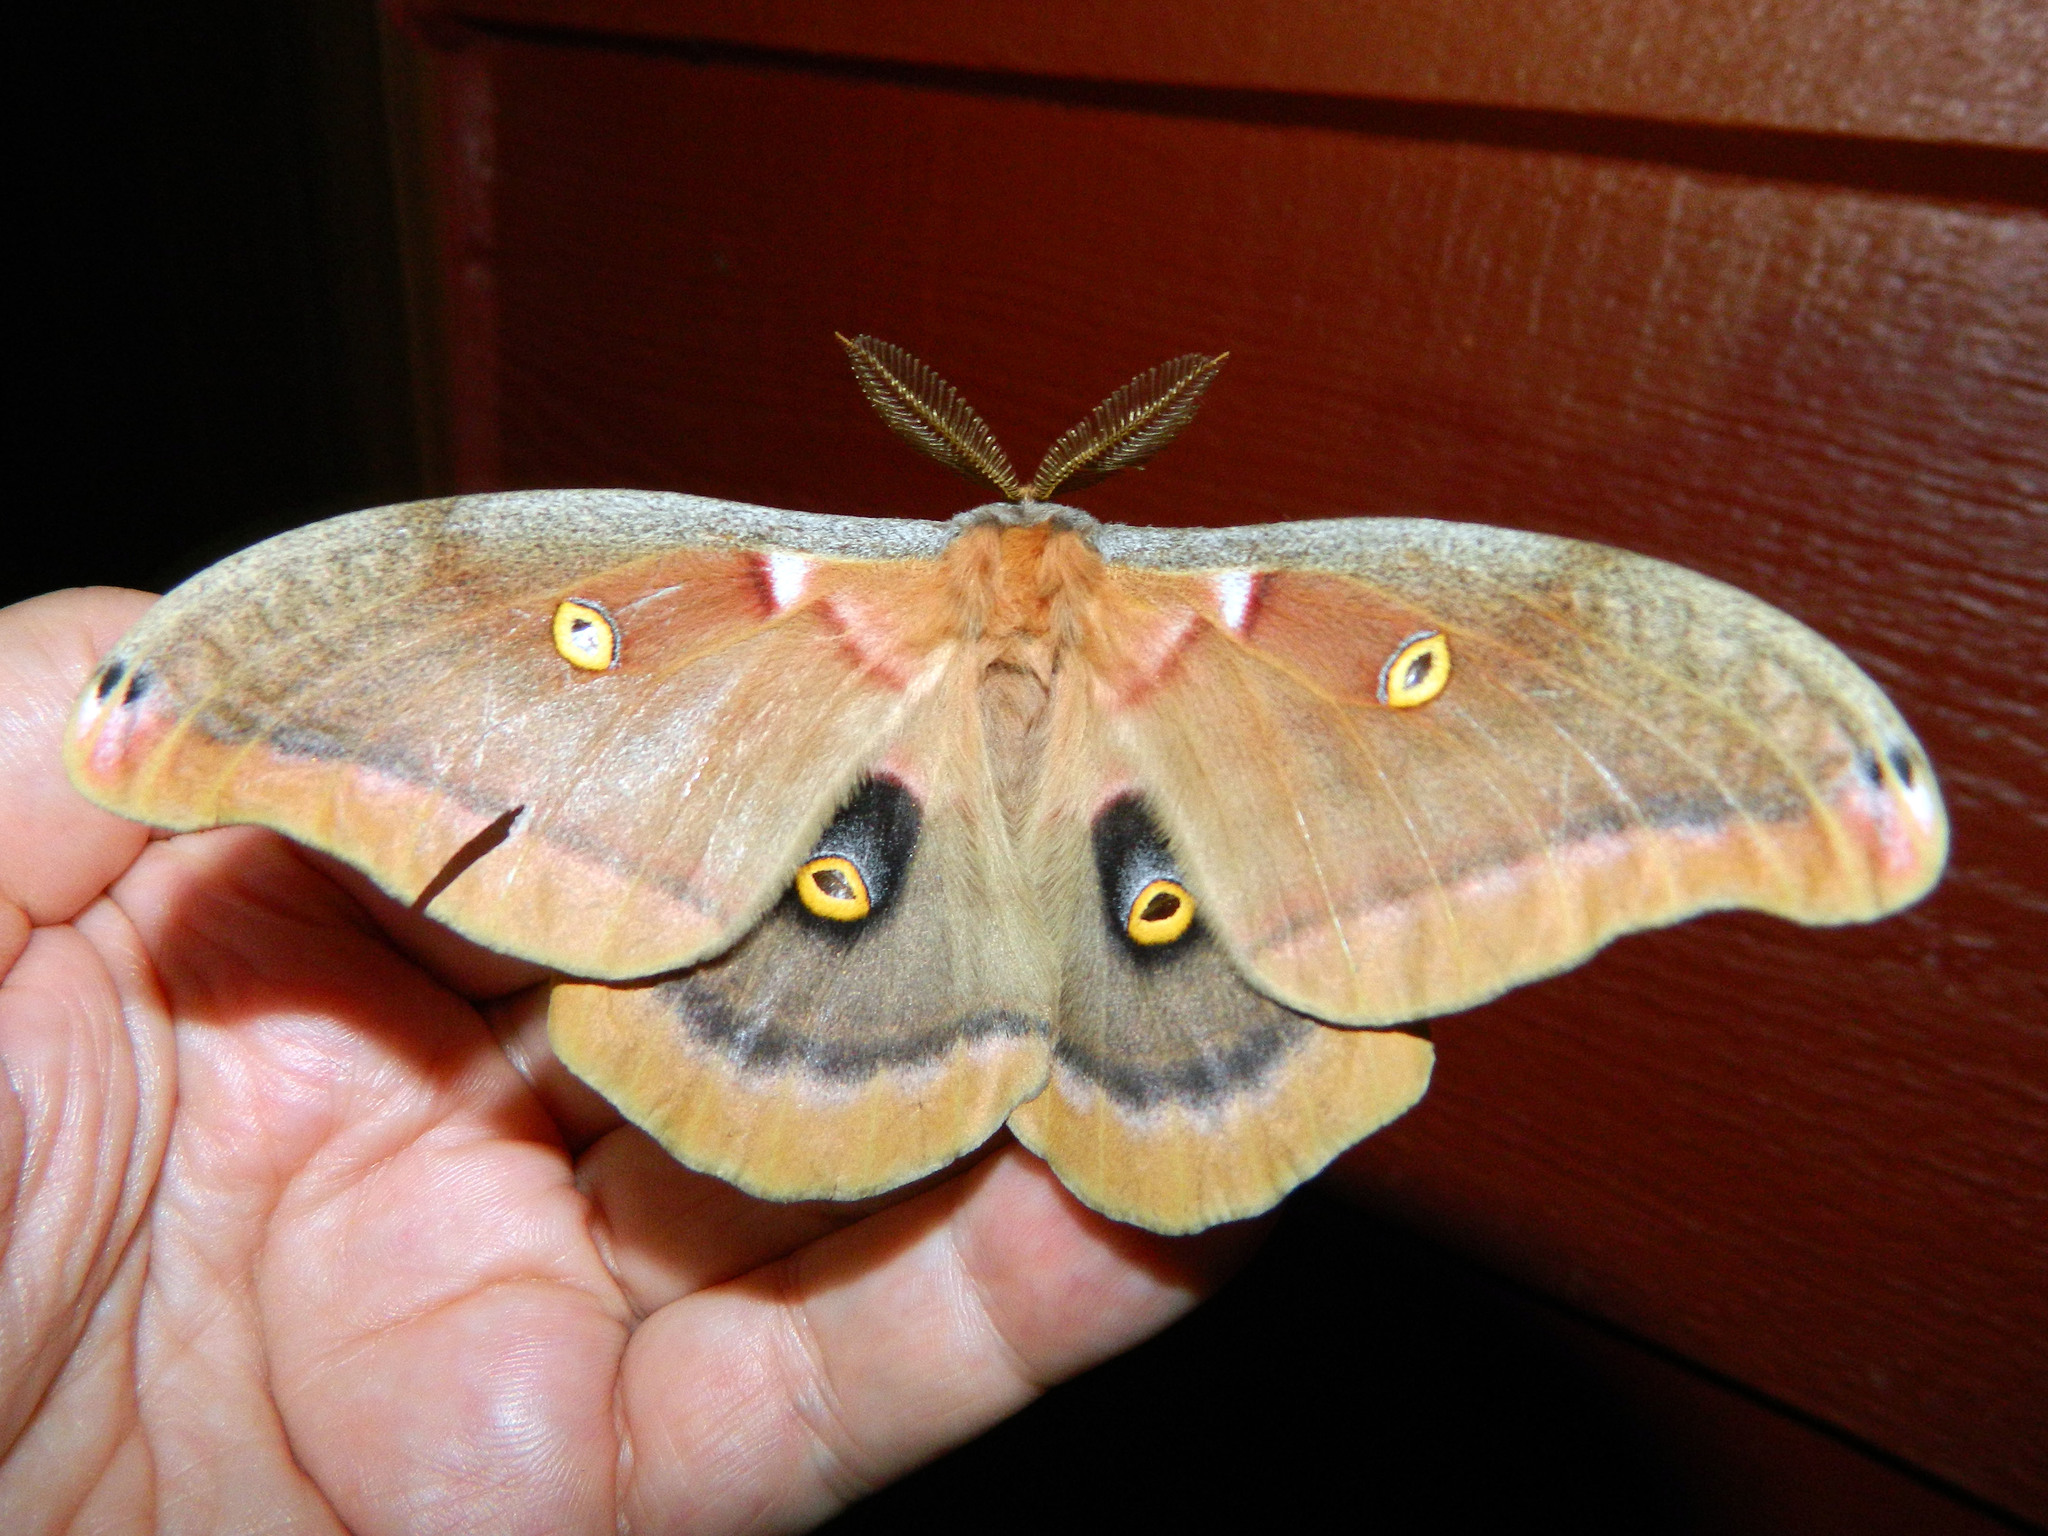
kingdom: Animalia
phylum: Arthropoda
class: Insecta
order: Lepidoptera
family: Saturniidae
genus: Antheraea
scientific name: Antheraea polyphemus
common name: Polyphemus moth
